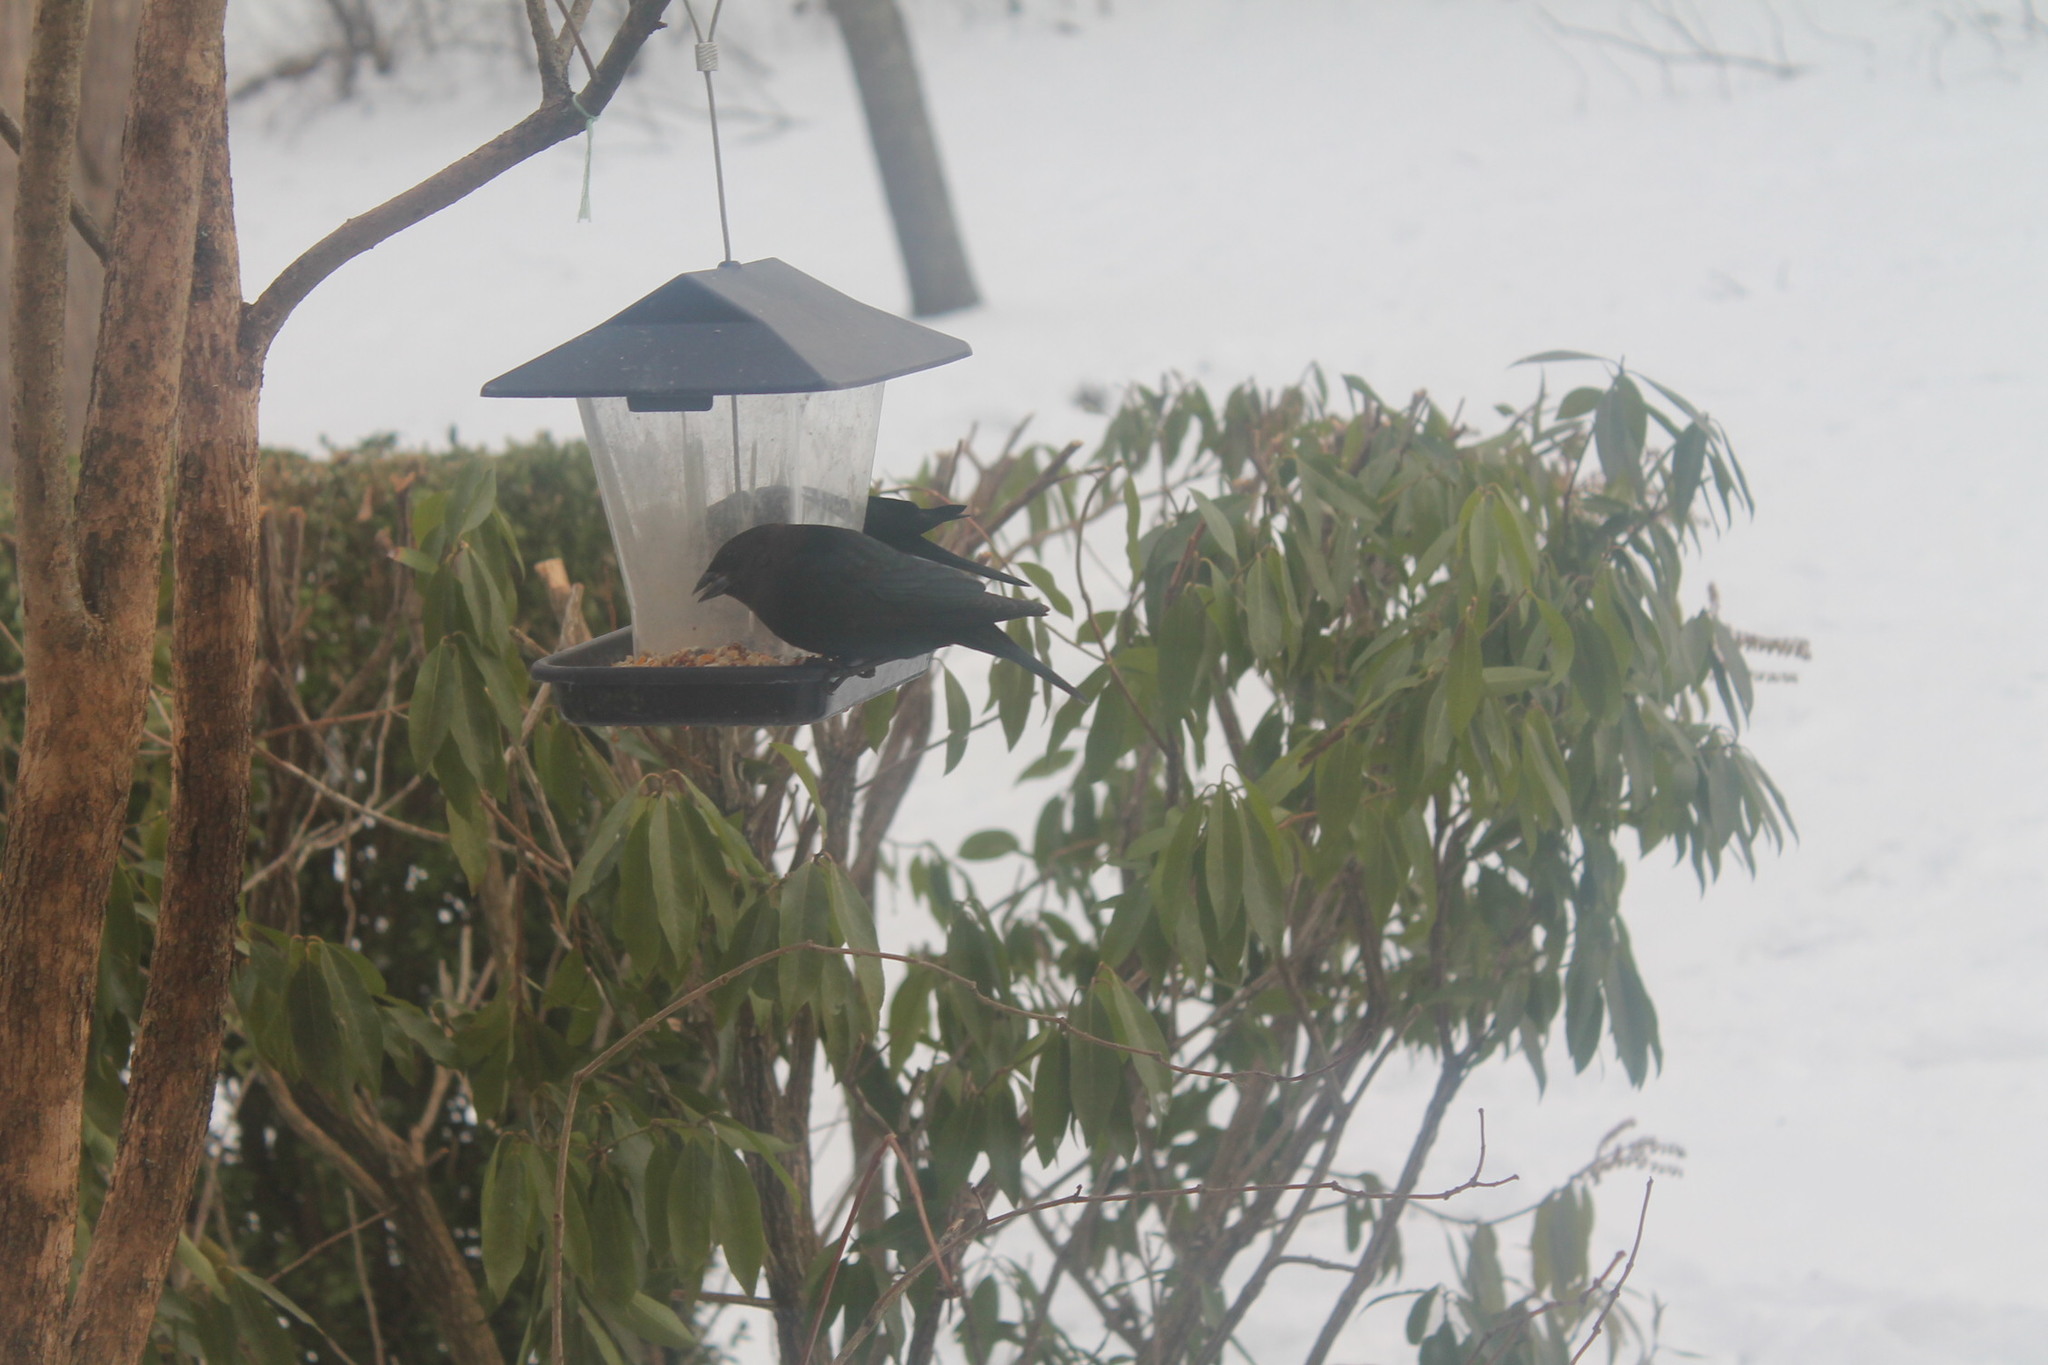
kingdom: Animalia
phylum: Chordata
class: Aves
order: Passeriformes
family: Icteridae
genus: Molothrus
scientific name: Molothrus ater
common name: Brown-headed cowbird
